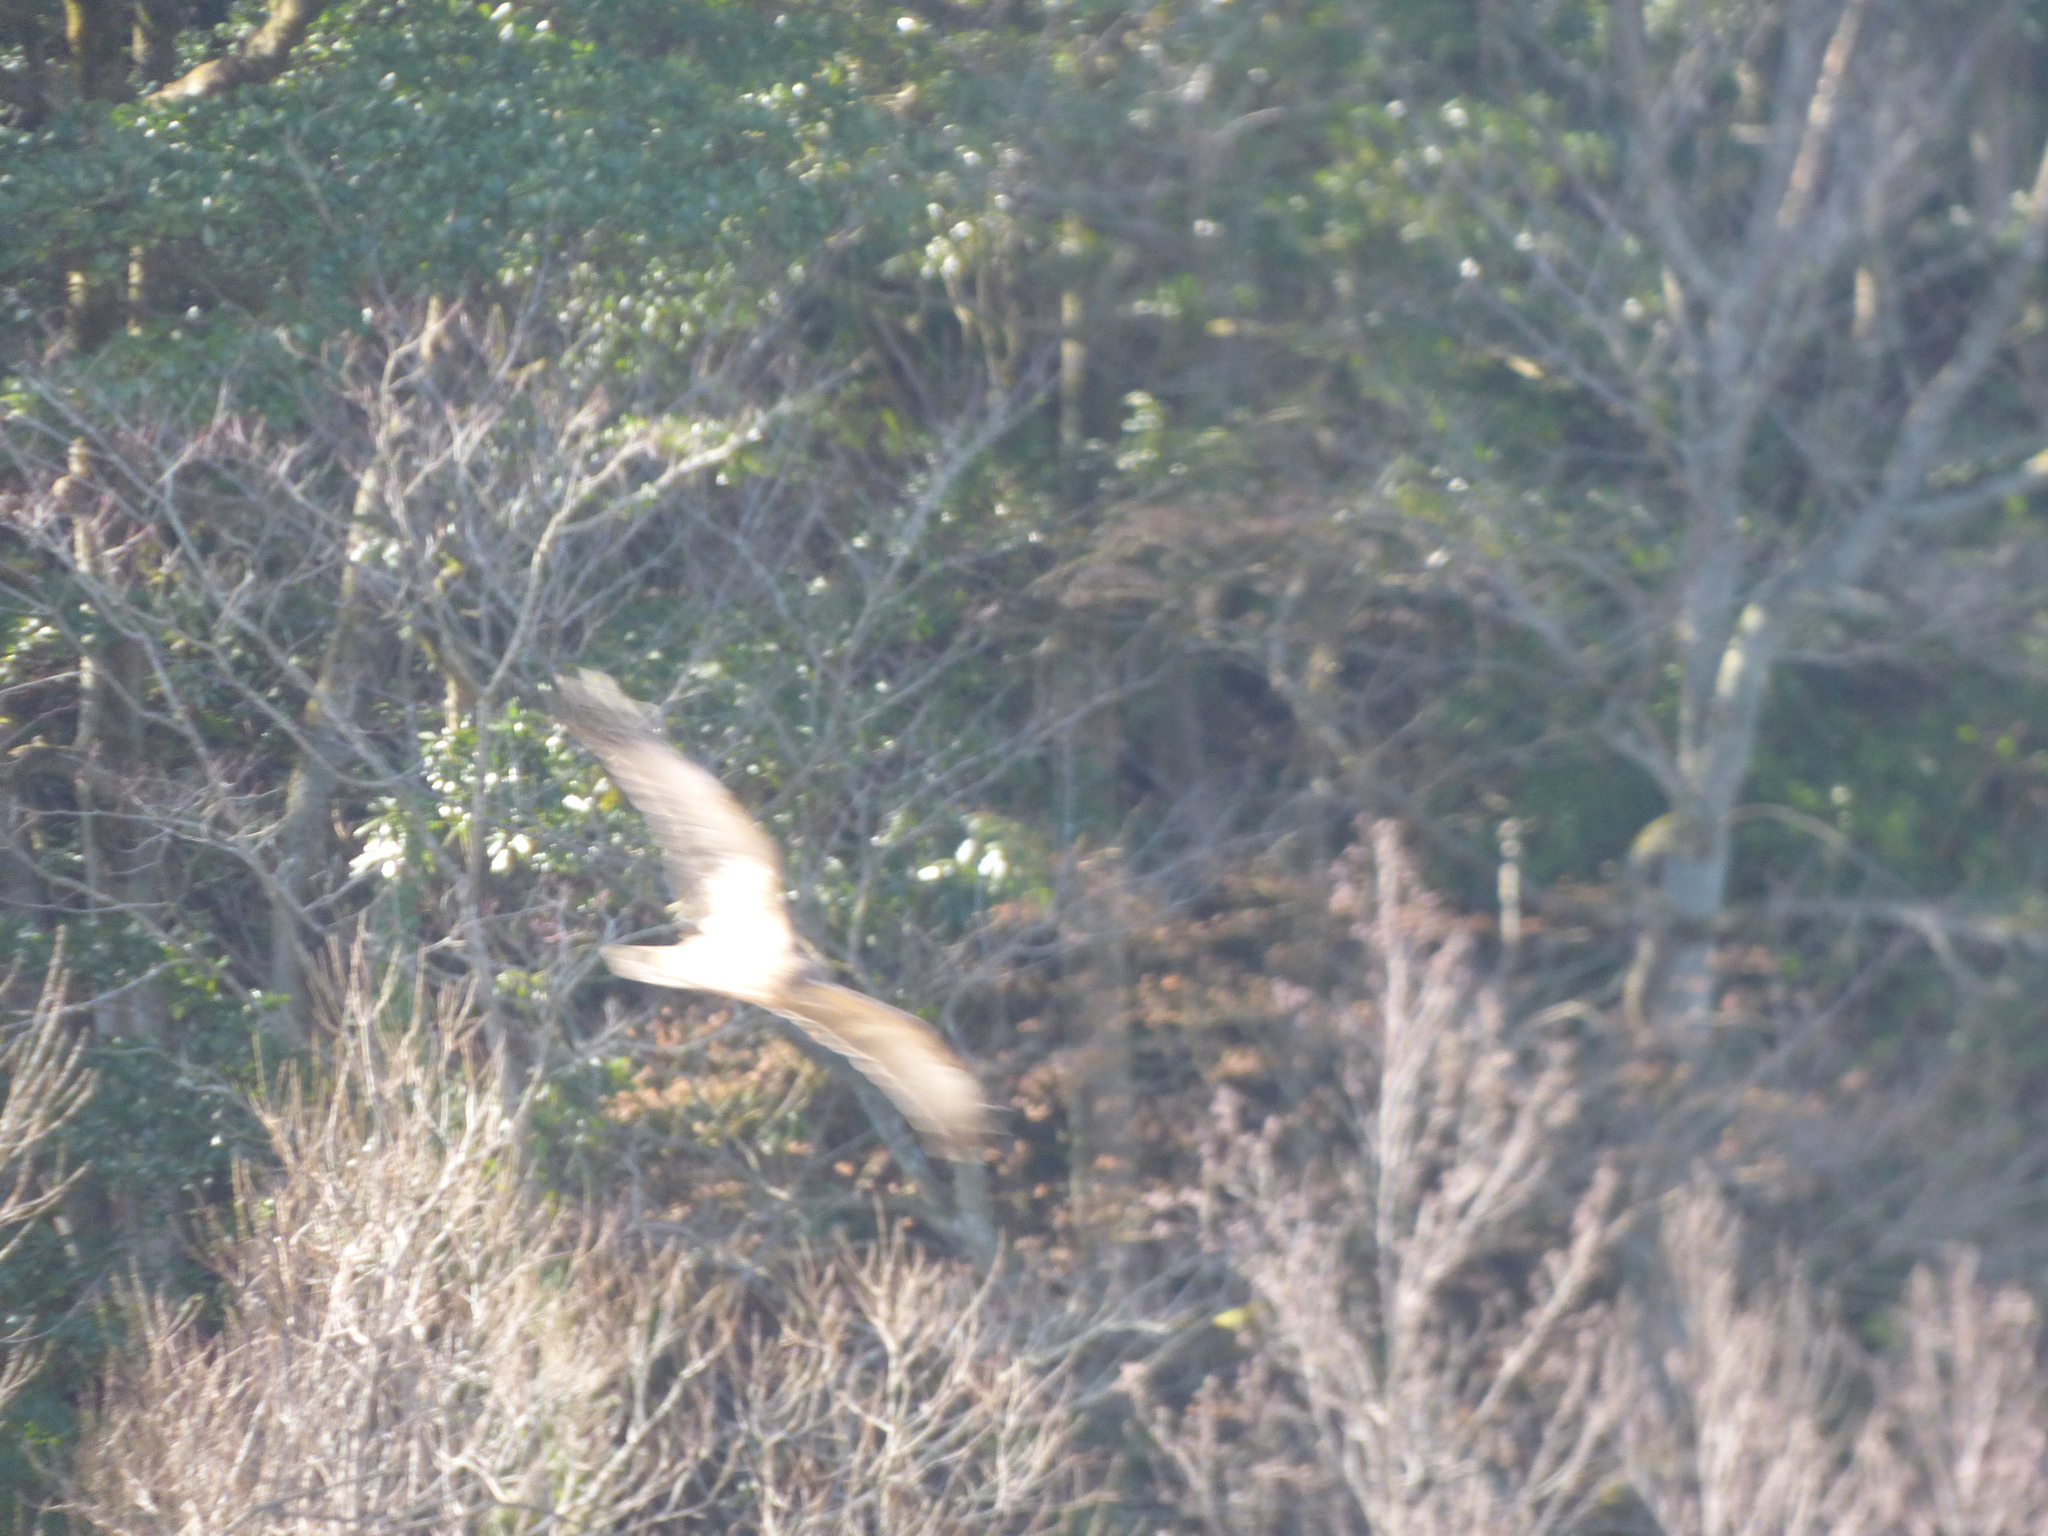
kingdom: Animalia
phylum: Chordata
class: Aves
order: Accipitriformes
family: Accipitridae
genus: Circus
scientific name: Circus spilonotus
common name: Eastern marsh-harrier
